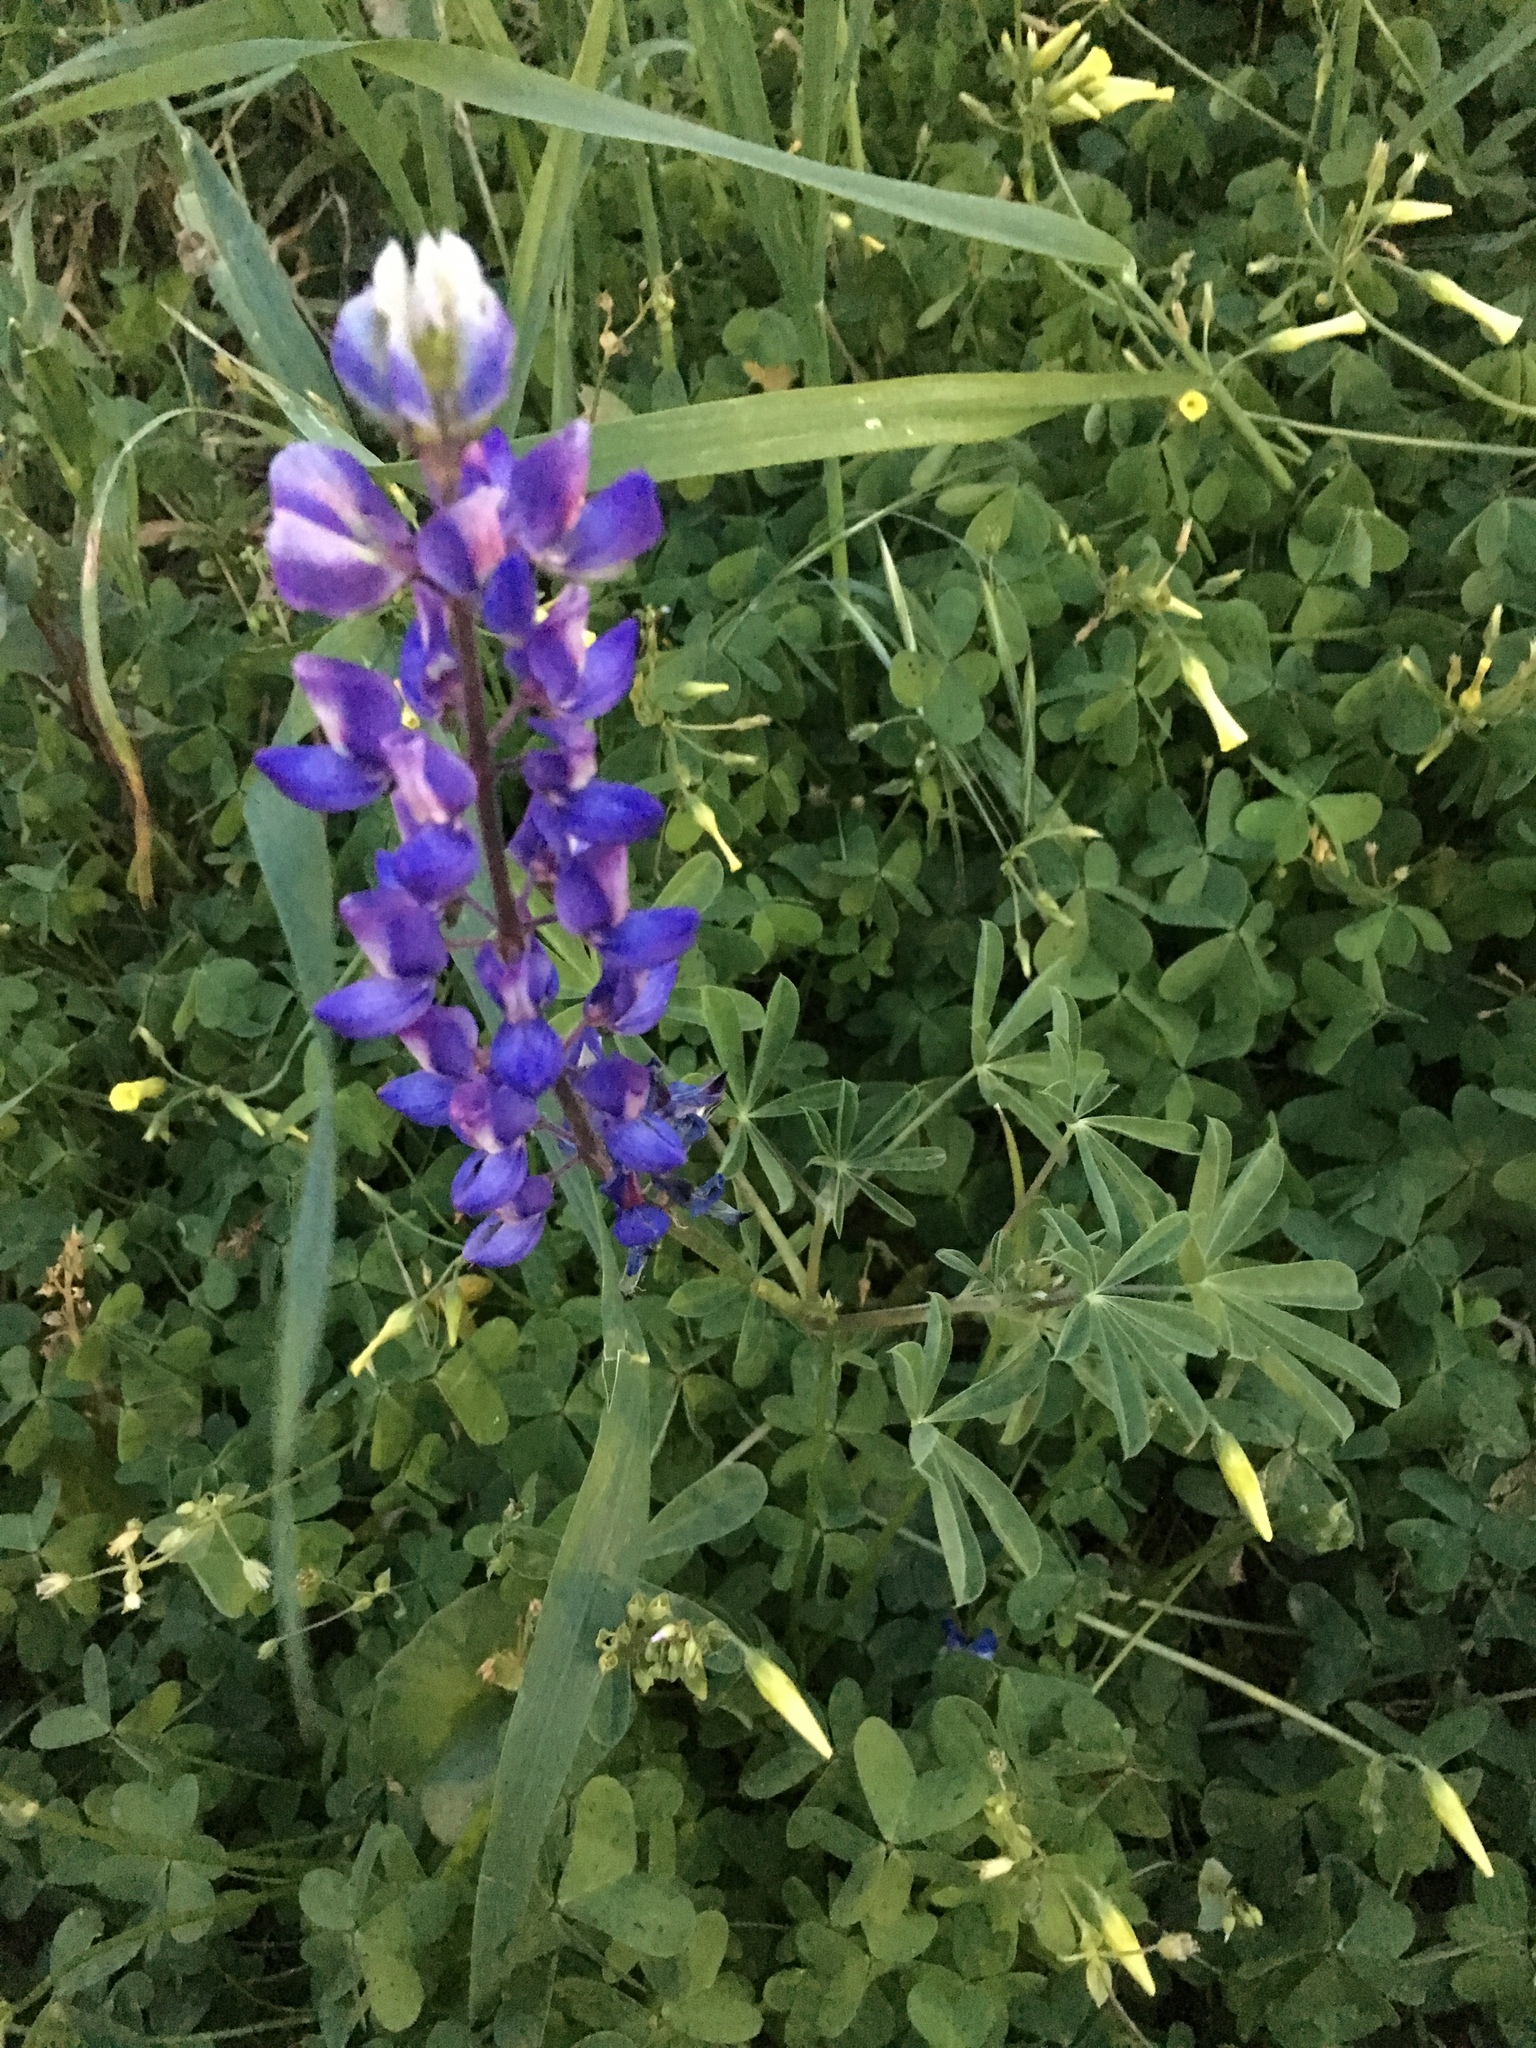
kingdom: Plantae
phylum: Tracheophyta
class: Magnoliopsida
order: Fabales
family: Fabaceae
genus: Lupinus
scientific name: Lupinus succulentus
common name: Arroyo lupine
